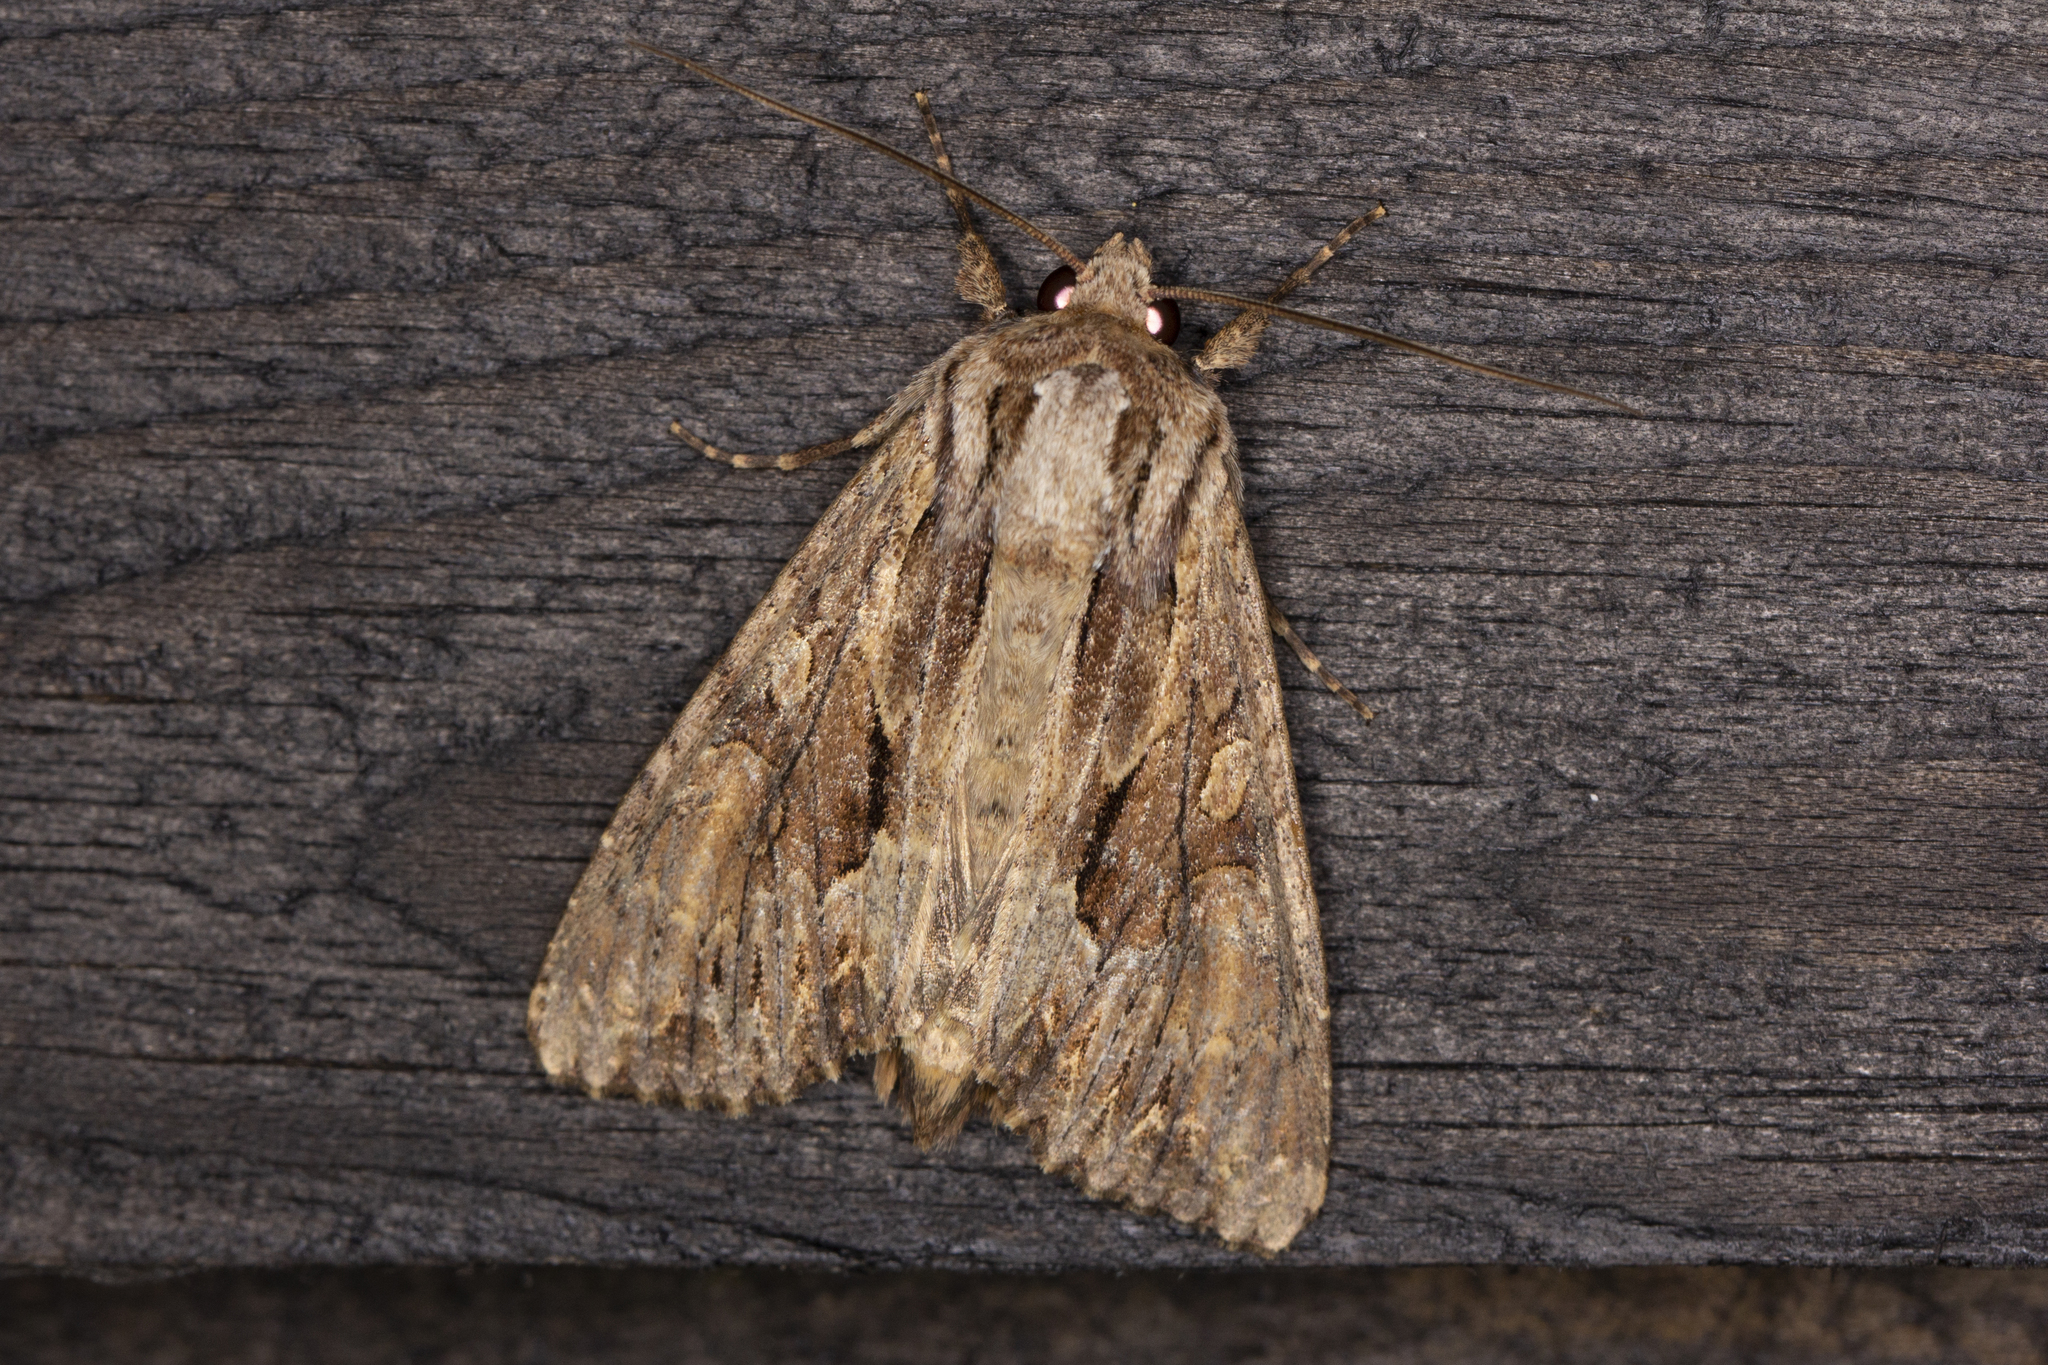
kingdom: Animalia
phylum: Arthropoda
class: Insecta
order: Lepidoptera
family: Noctuidae
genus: Apamea
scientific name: Apamea monoglypha
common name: Dark arches
